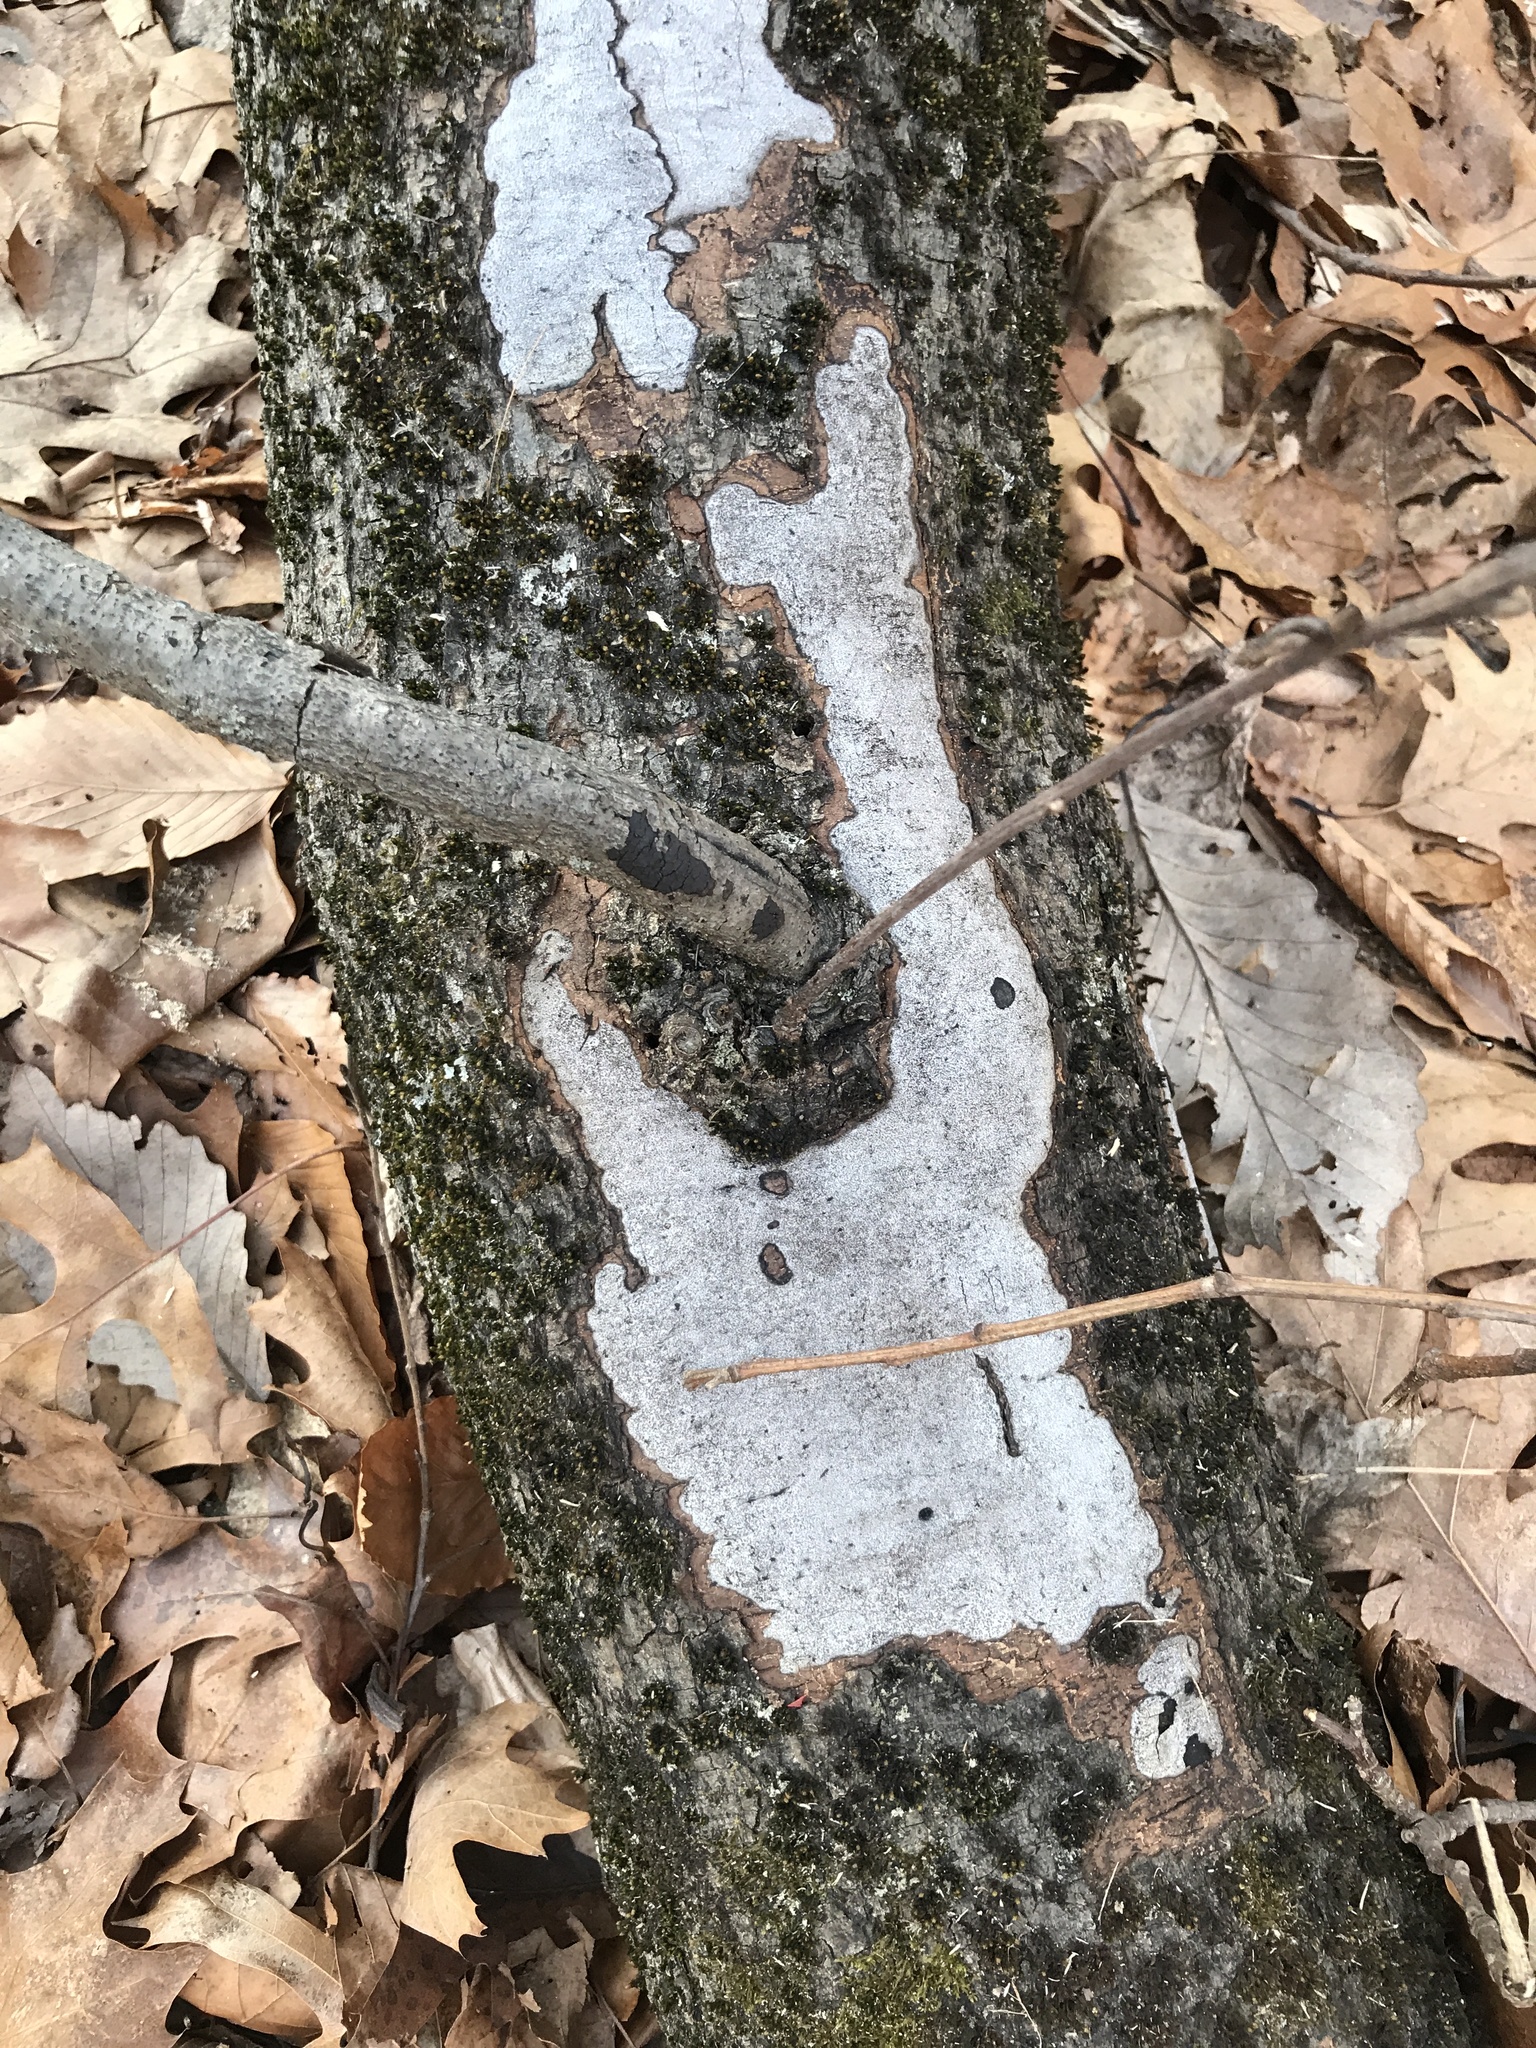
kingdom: Fungi
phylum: Ascomycota
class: Sordariomycetes
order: Xylariales
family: Graphostromataceae
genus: Biscogniauxia
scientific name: Biscogniauxia atropunctata
